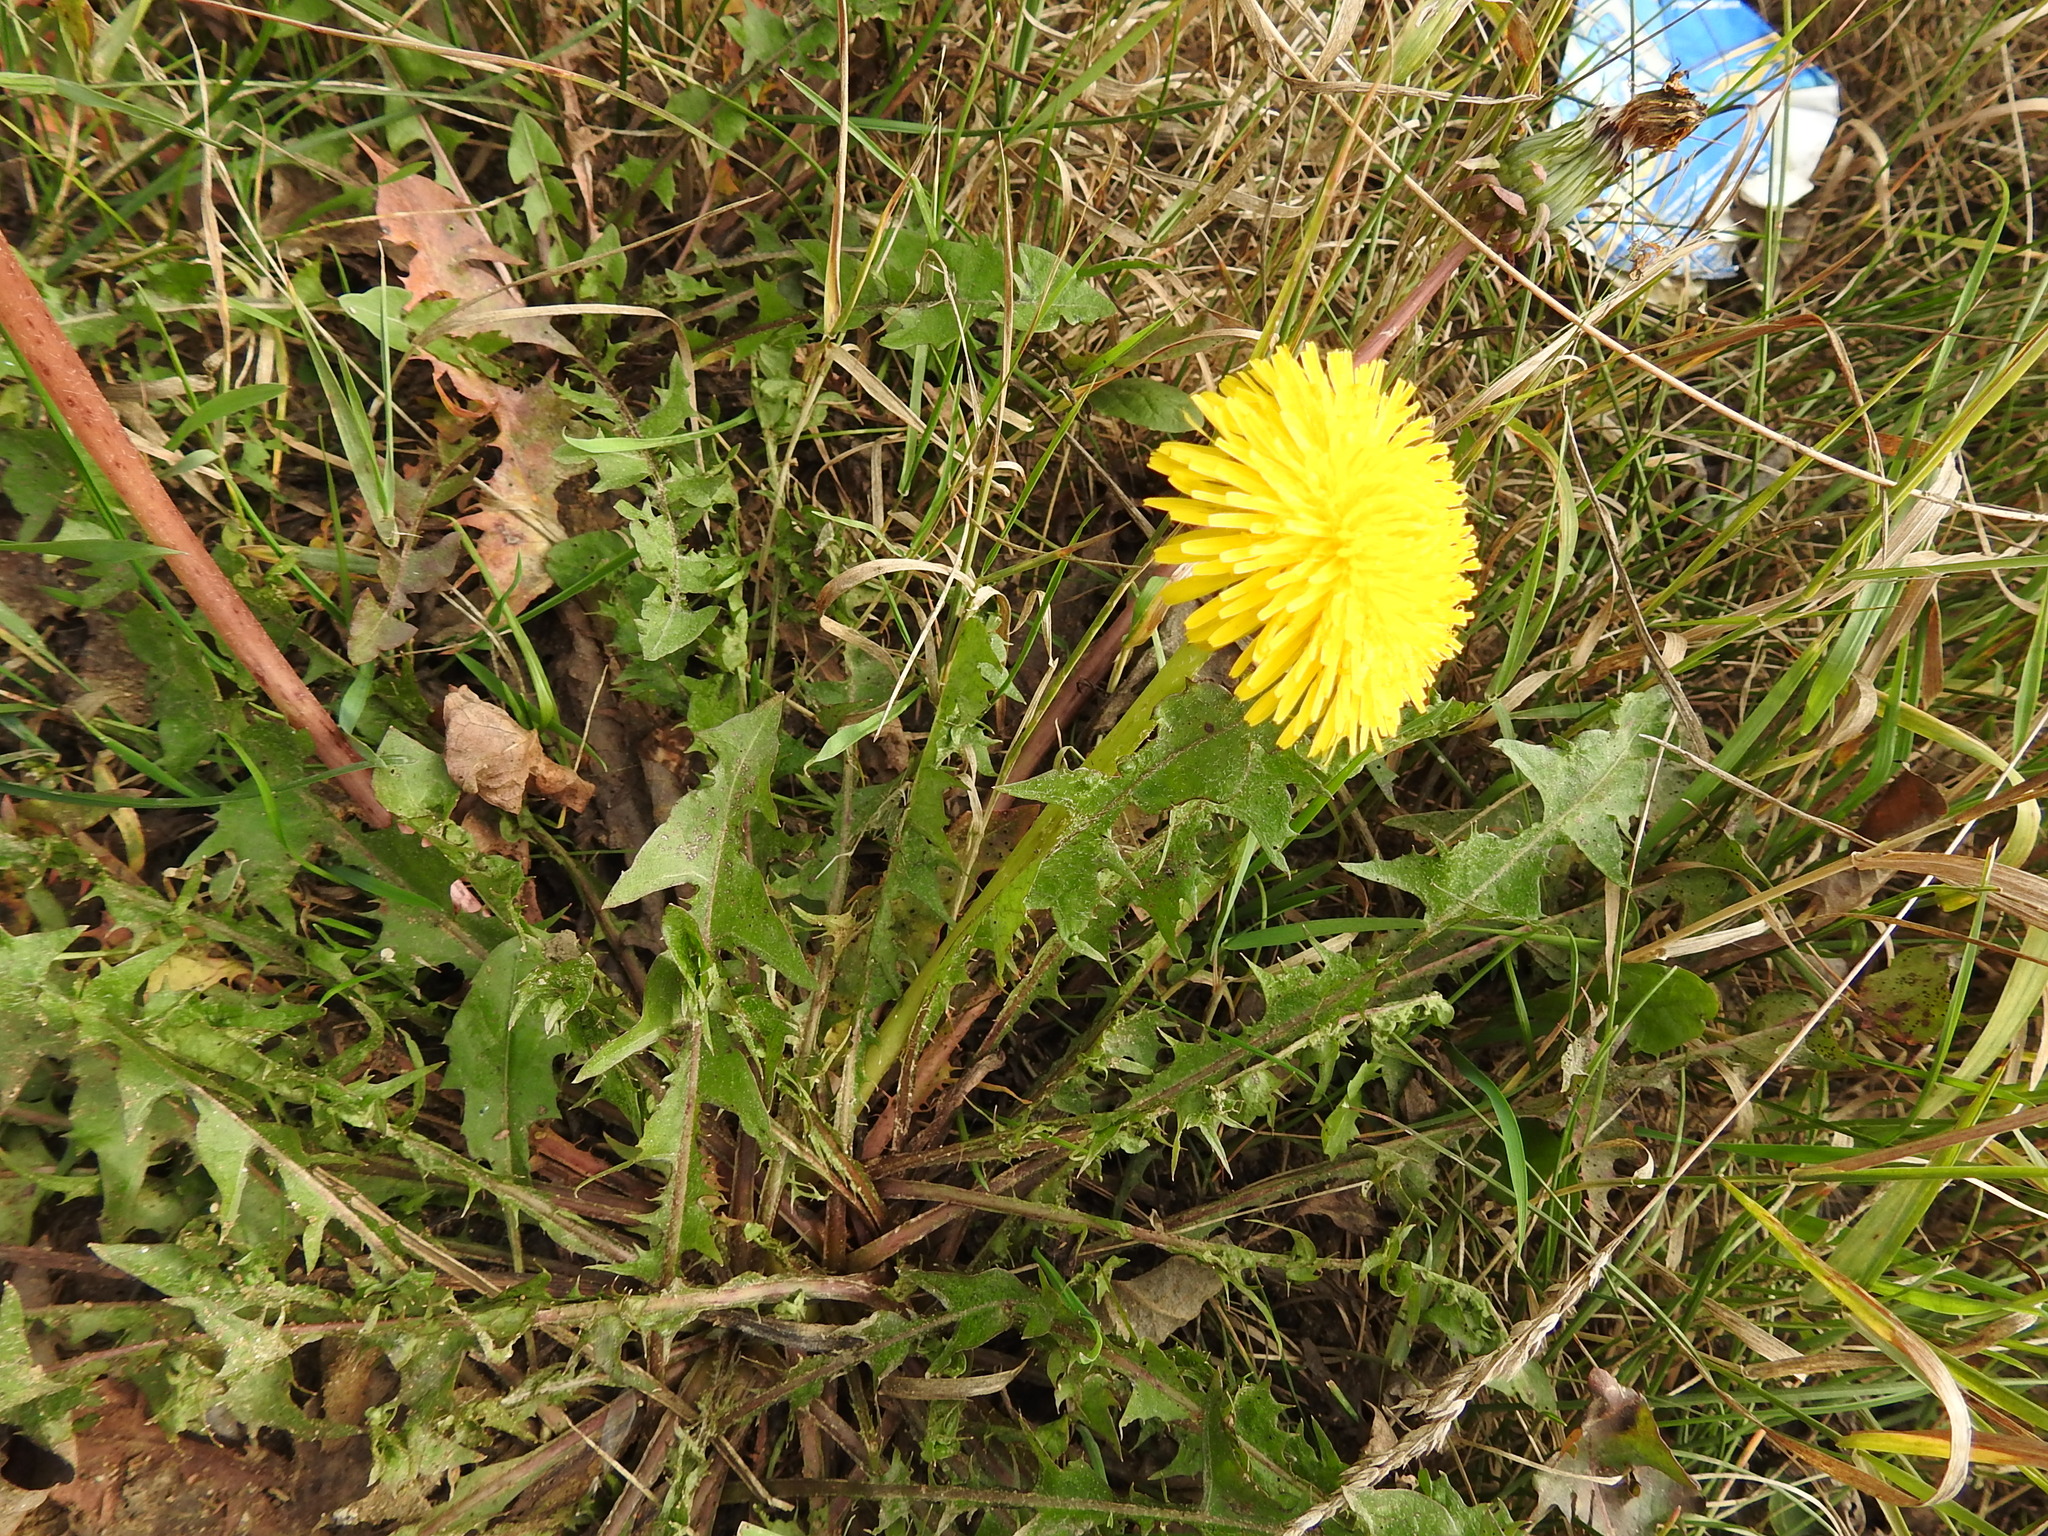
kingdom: Plantae
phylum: Tracheophyta
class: Magnoliopsida
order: Asterales
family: Asteraceae
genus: Taraxacum
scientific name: Taraxacum officinale
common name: Common dandelion
